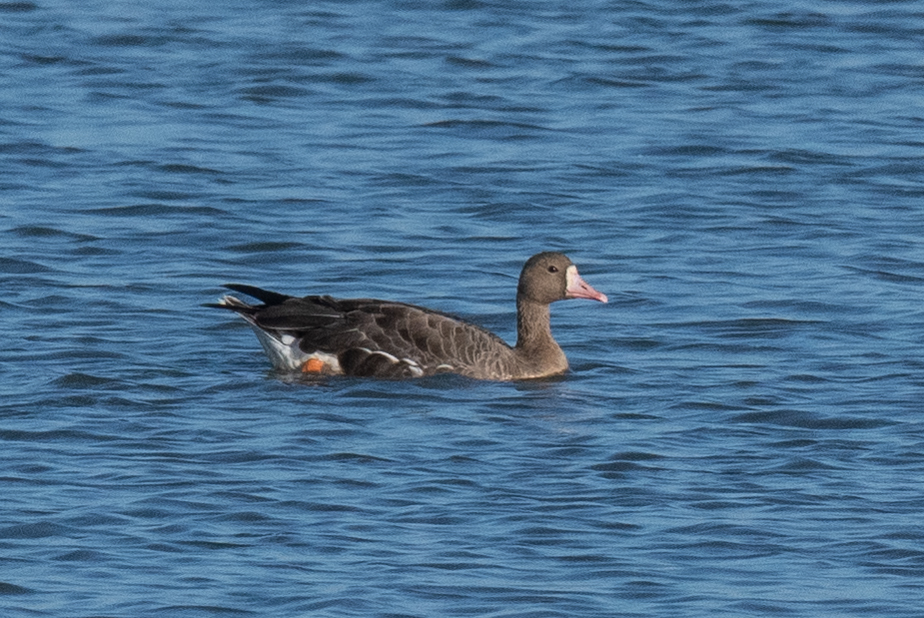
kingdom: Animalia
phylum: Chordata
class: Aves
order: Anseriformes
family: Anatidae
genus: Anser
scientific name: Anser albifrons
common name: Greater white-fronted goose
